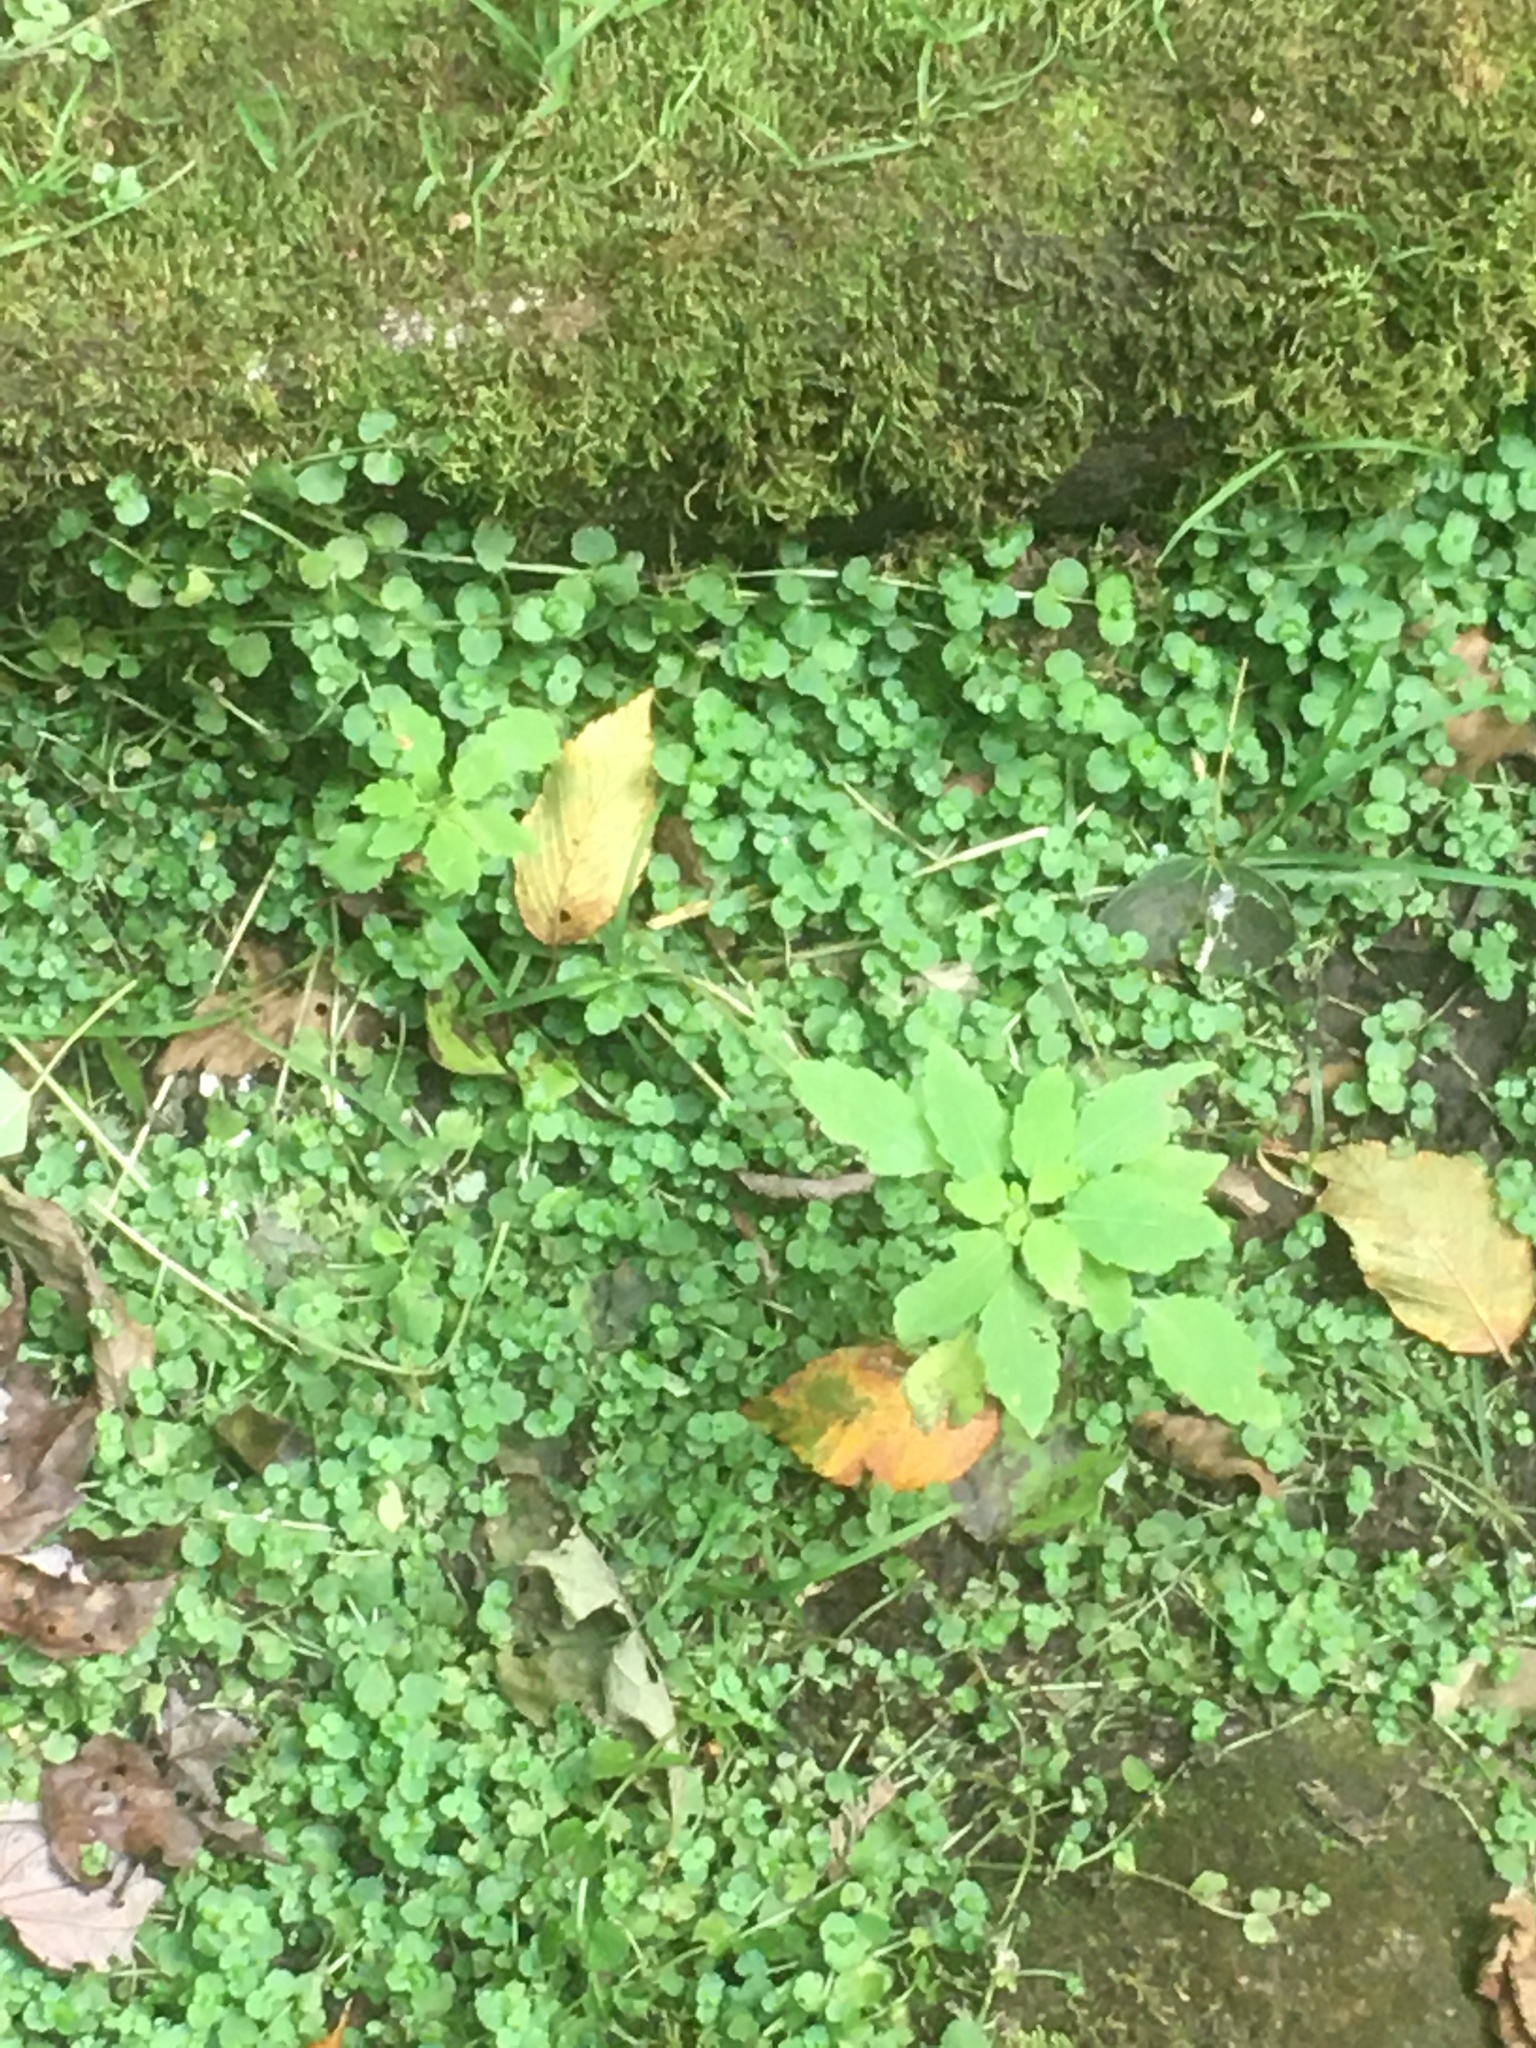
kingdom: Plantae
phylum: Tracheophyta
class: Magnoliopsida
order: Saxifragales
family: Saxifragaceae
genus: Chrysosplenium
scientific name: Chrysosplenium americanum
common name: American golden-saxifrage
